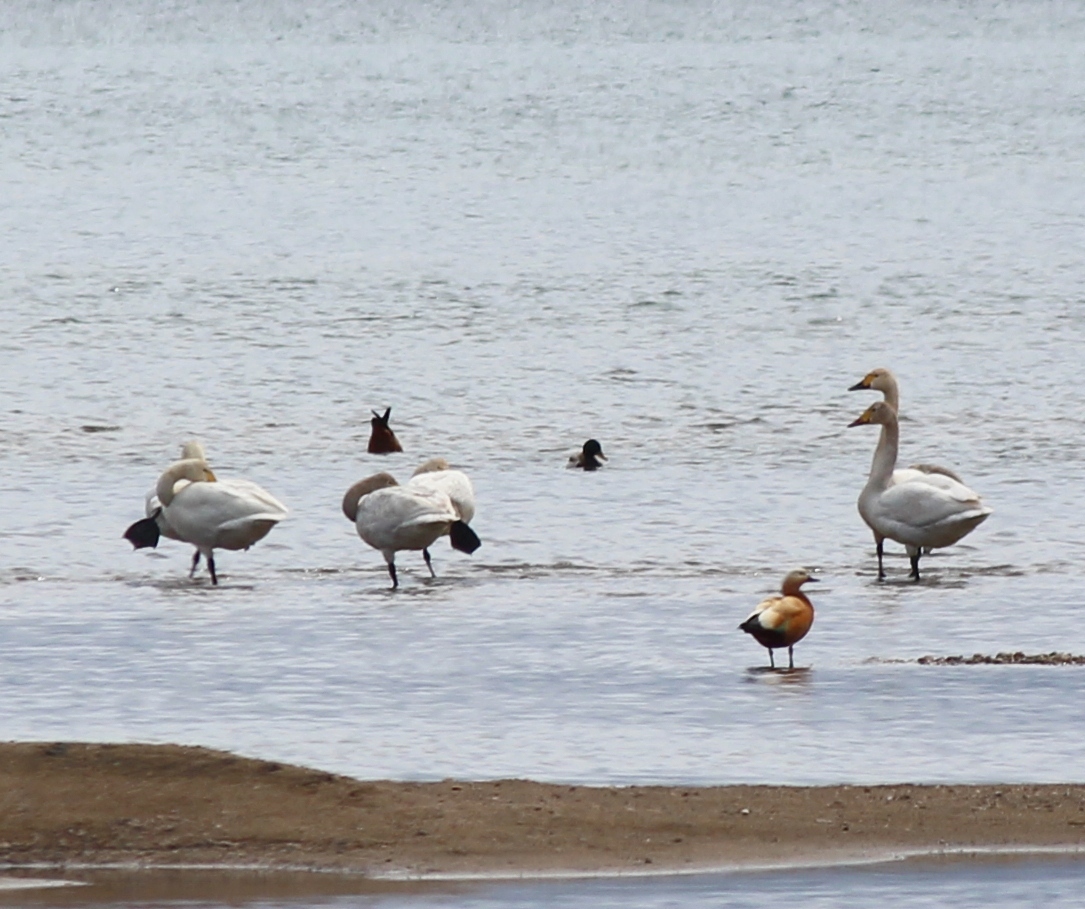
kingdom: Animalia
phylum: Chordata
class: Aves
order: Anseriformes
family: Anatidae
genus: Cygnus
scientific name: Cygnus columbianus
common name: Tundra swan
